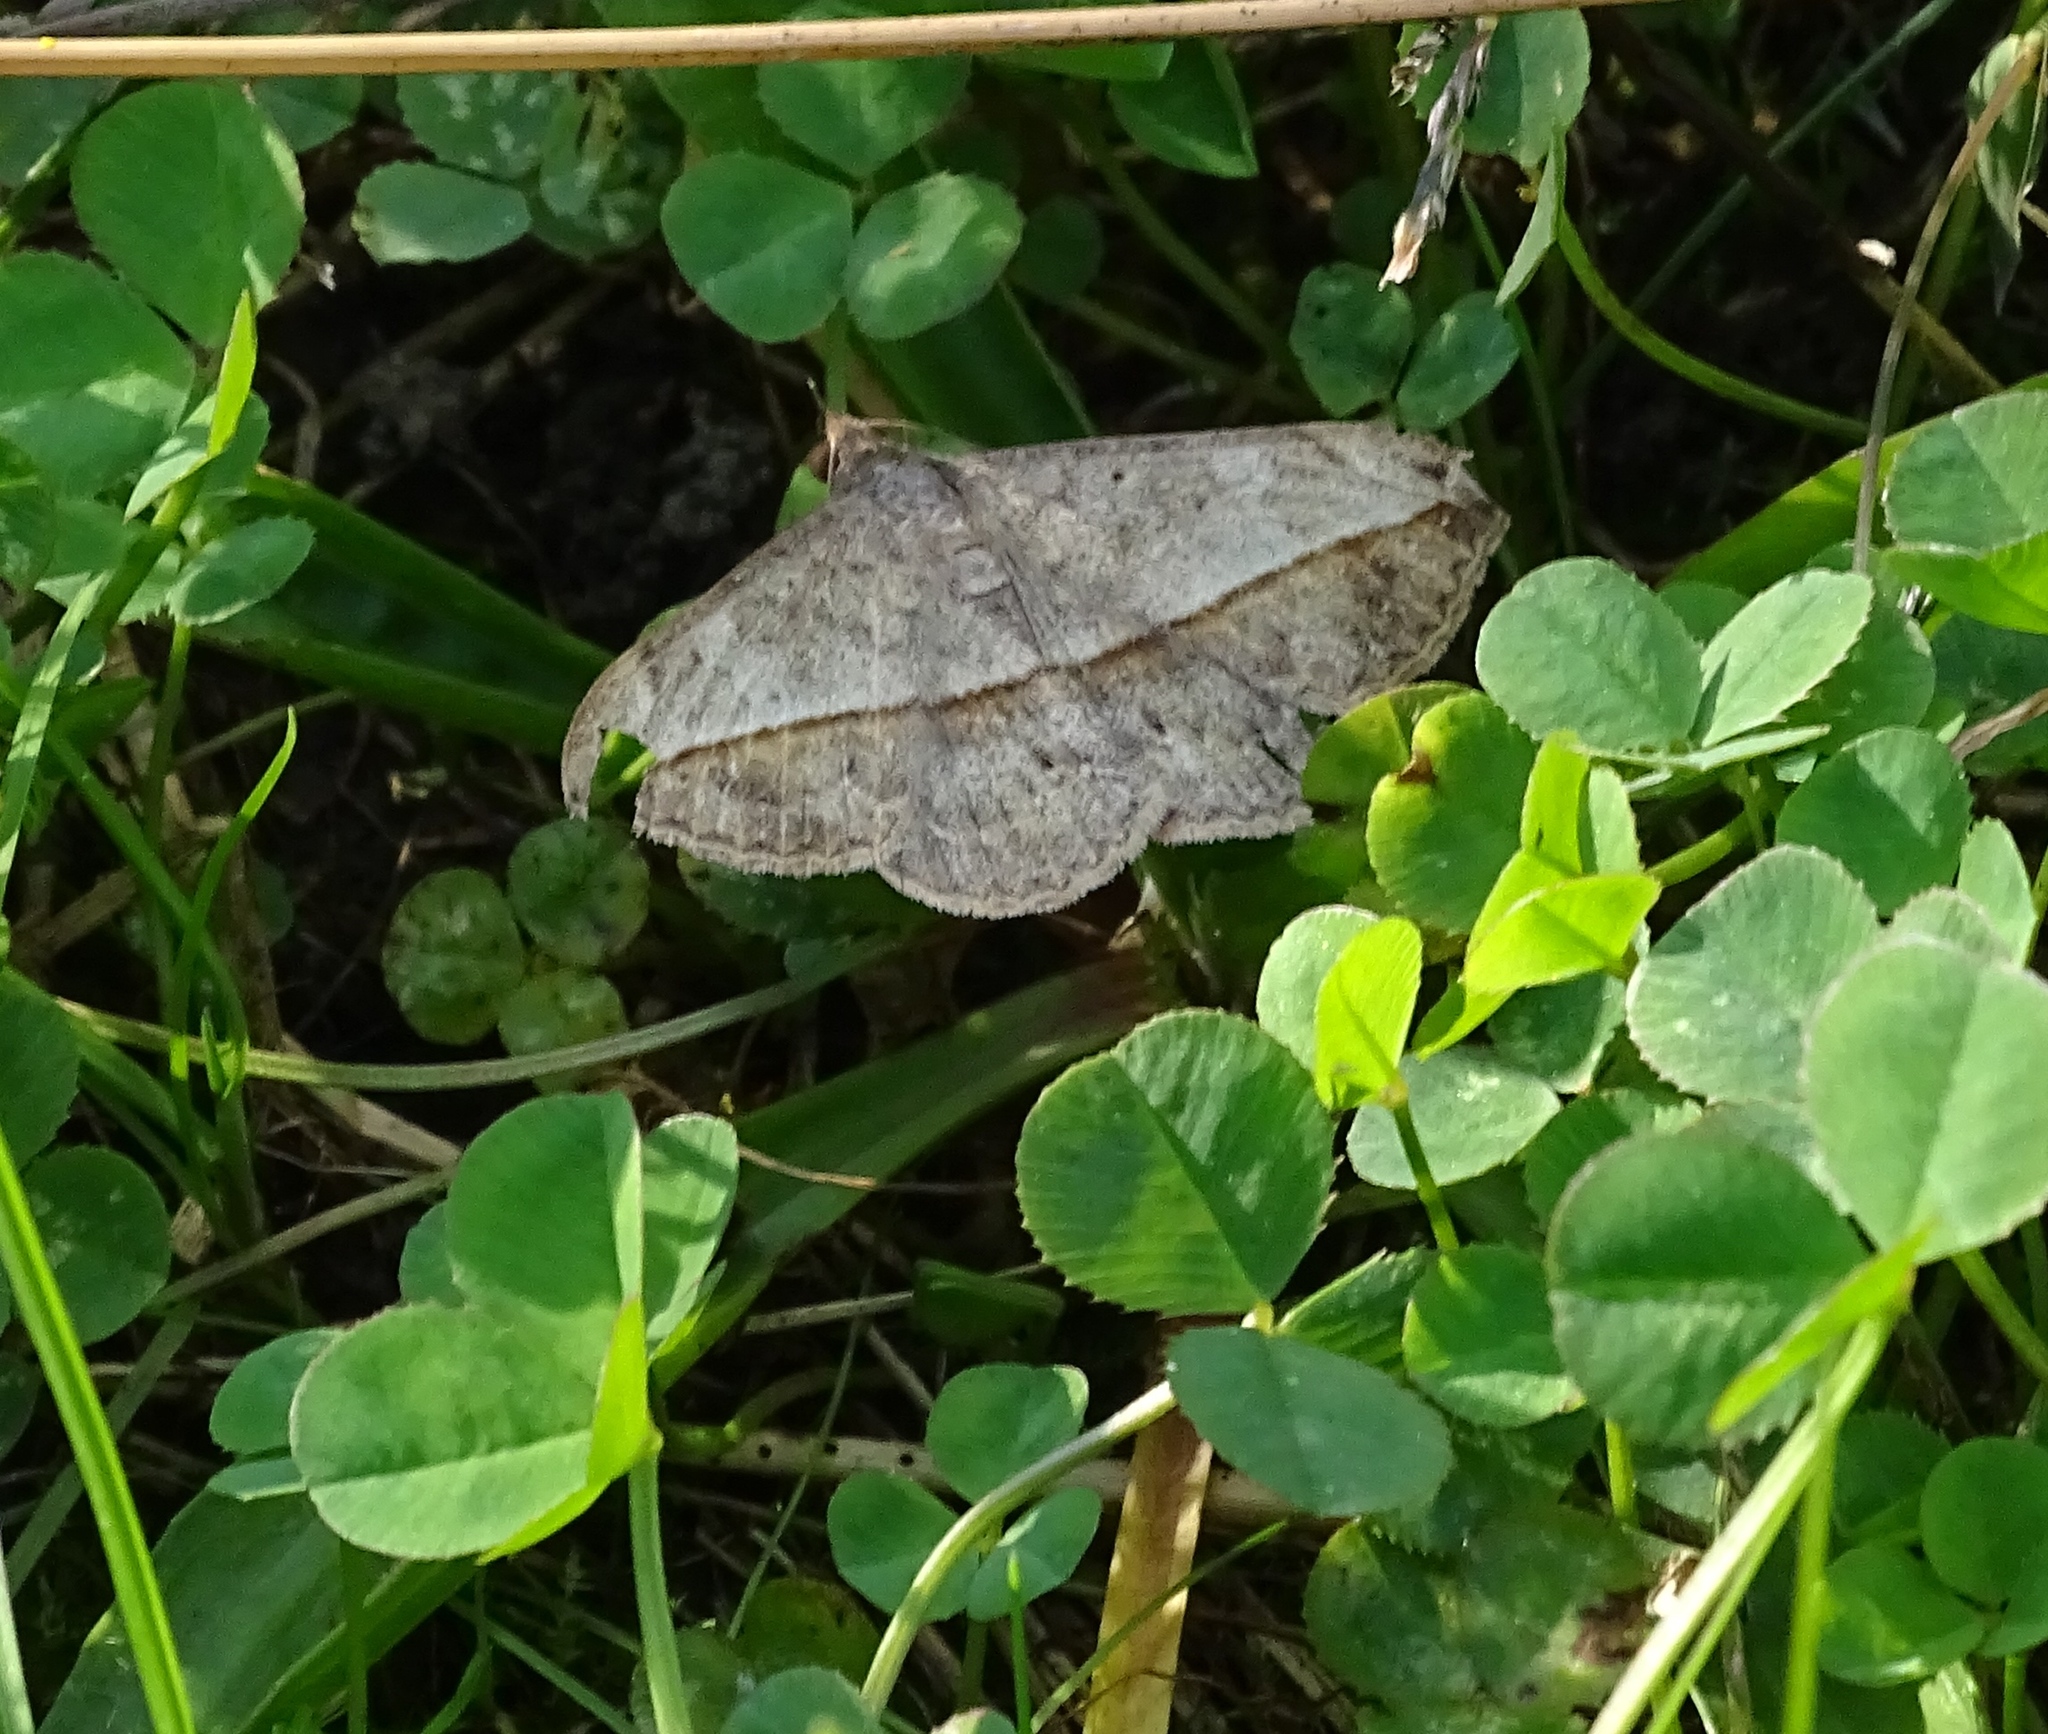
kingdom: Animalia
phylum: Arthropoda
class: Insecta
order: Lepidoptera
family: Erebidae
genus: Anticarsia
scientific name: Anticarsia gemmatalis
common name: Cutworm moth
